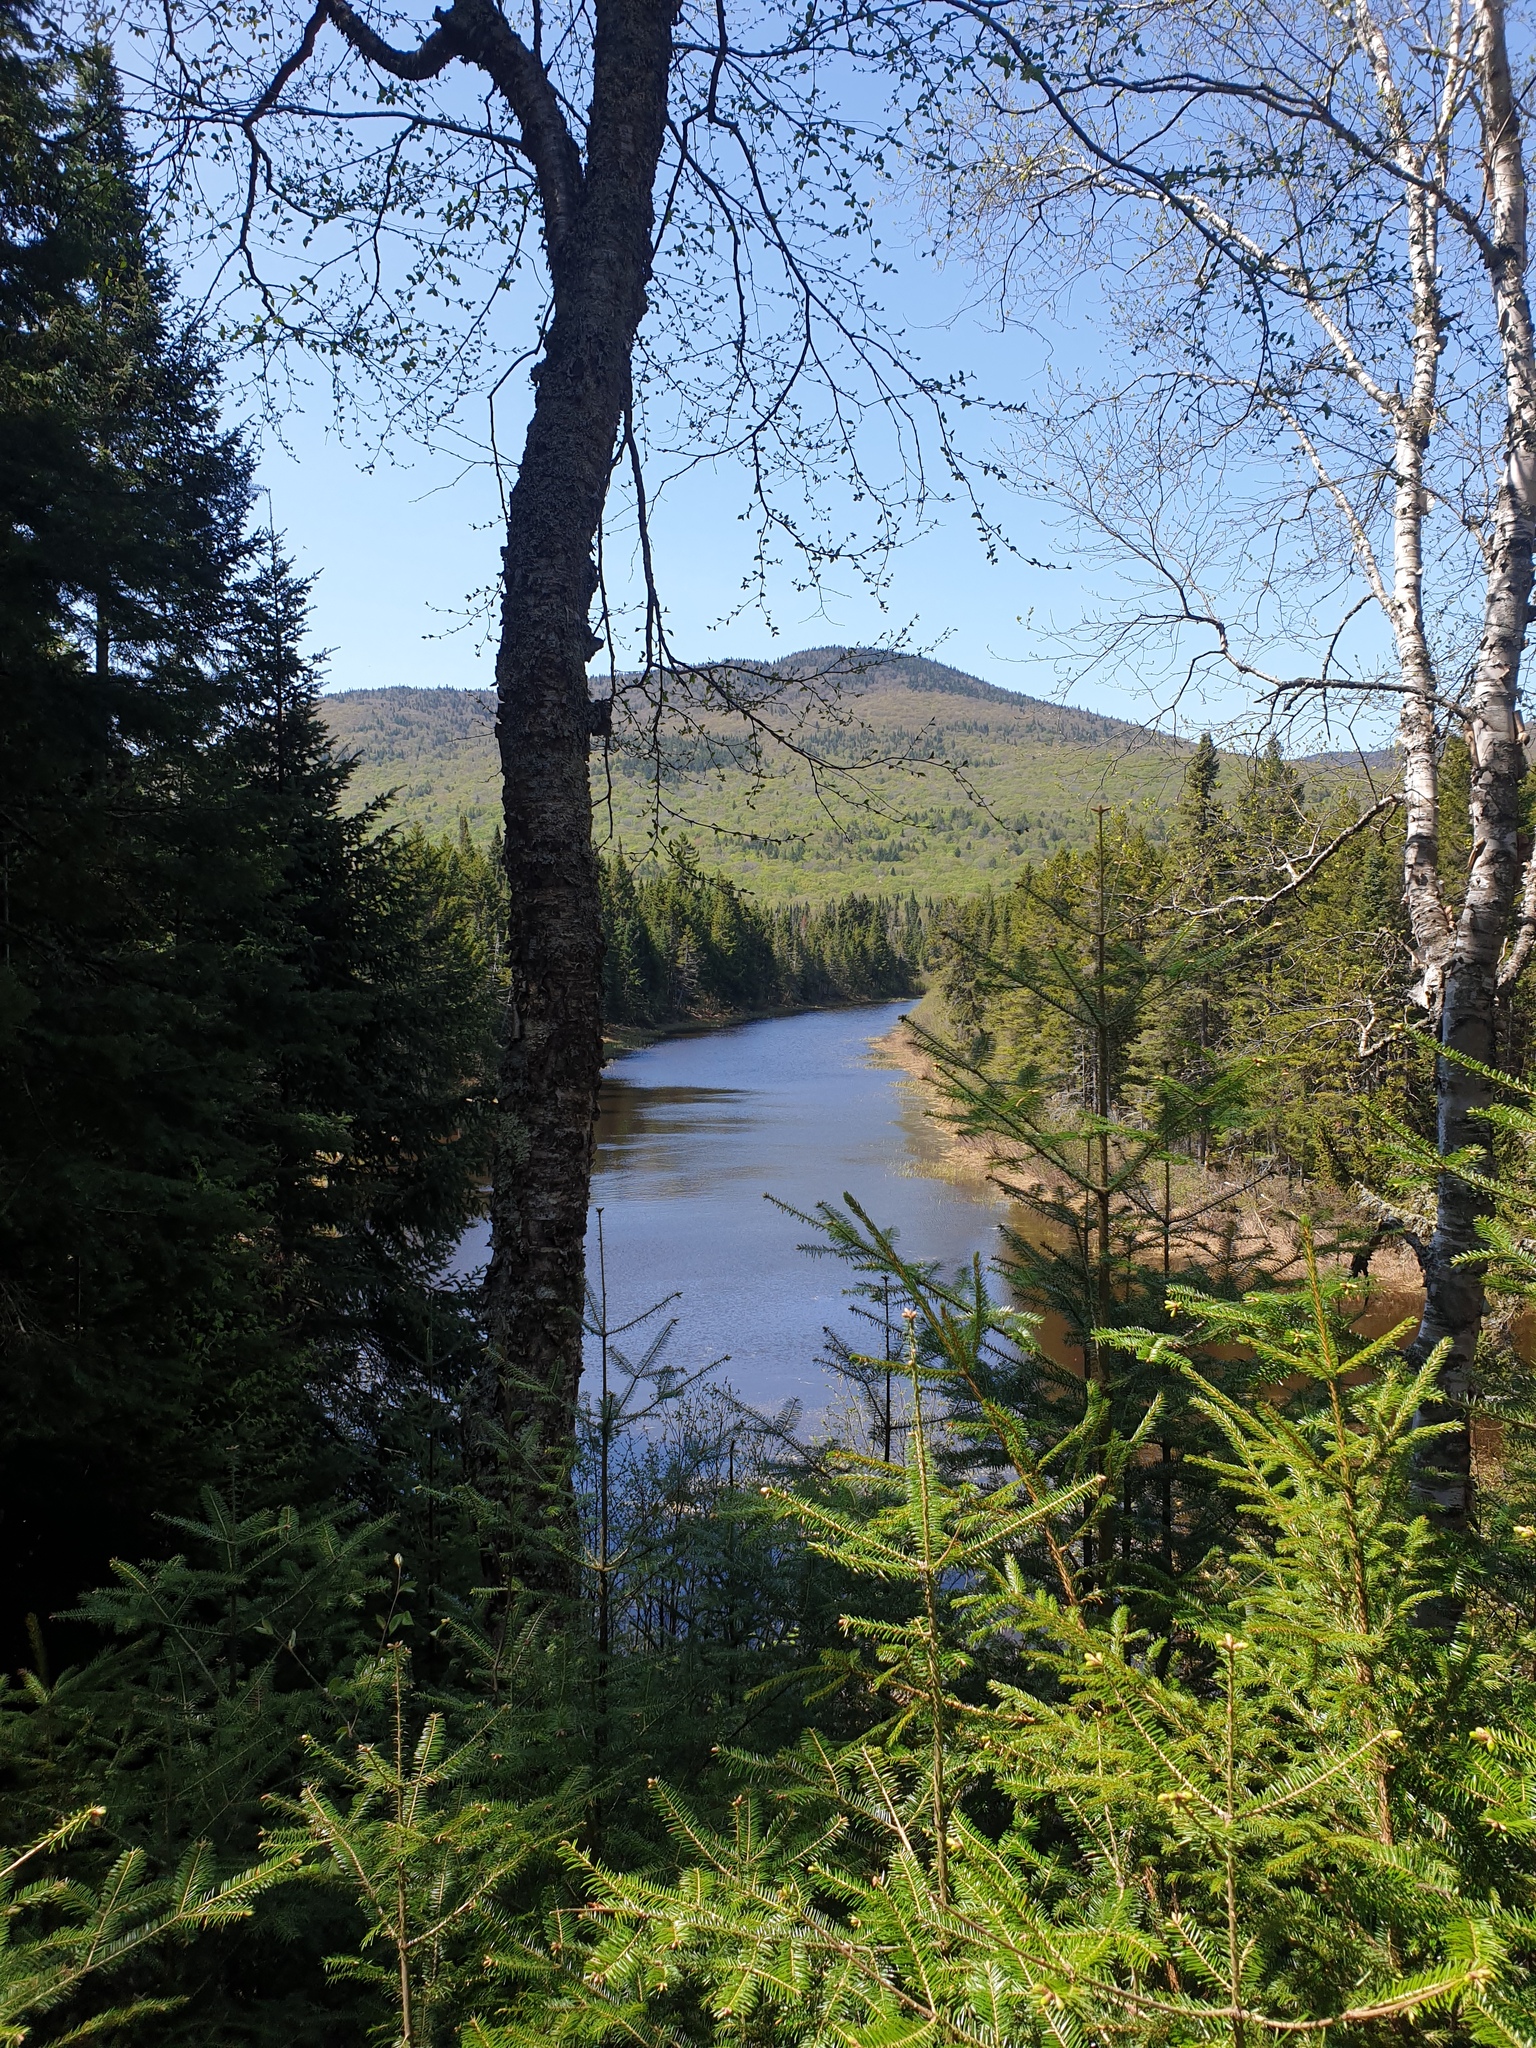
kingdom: Plantae
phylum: Tracheophyta
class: Pinopsida
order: Pinales
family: Pinaceae
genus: Abies
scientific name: Abies balsamea
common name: Balsam fir
